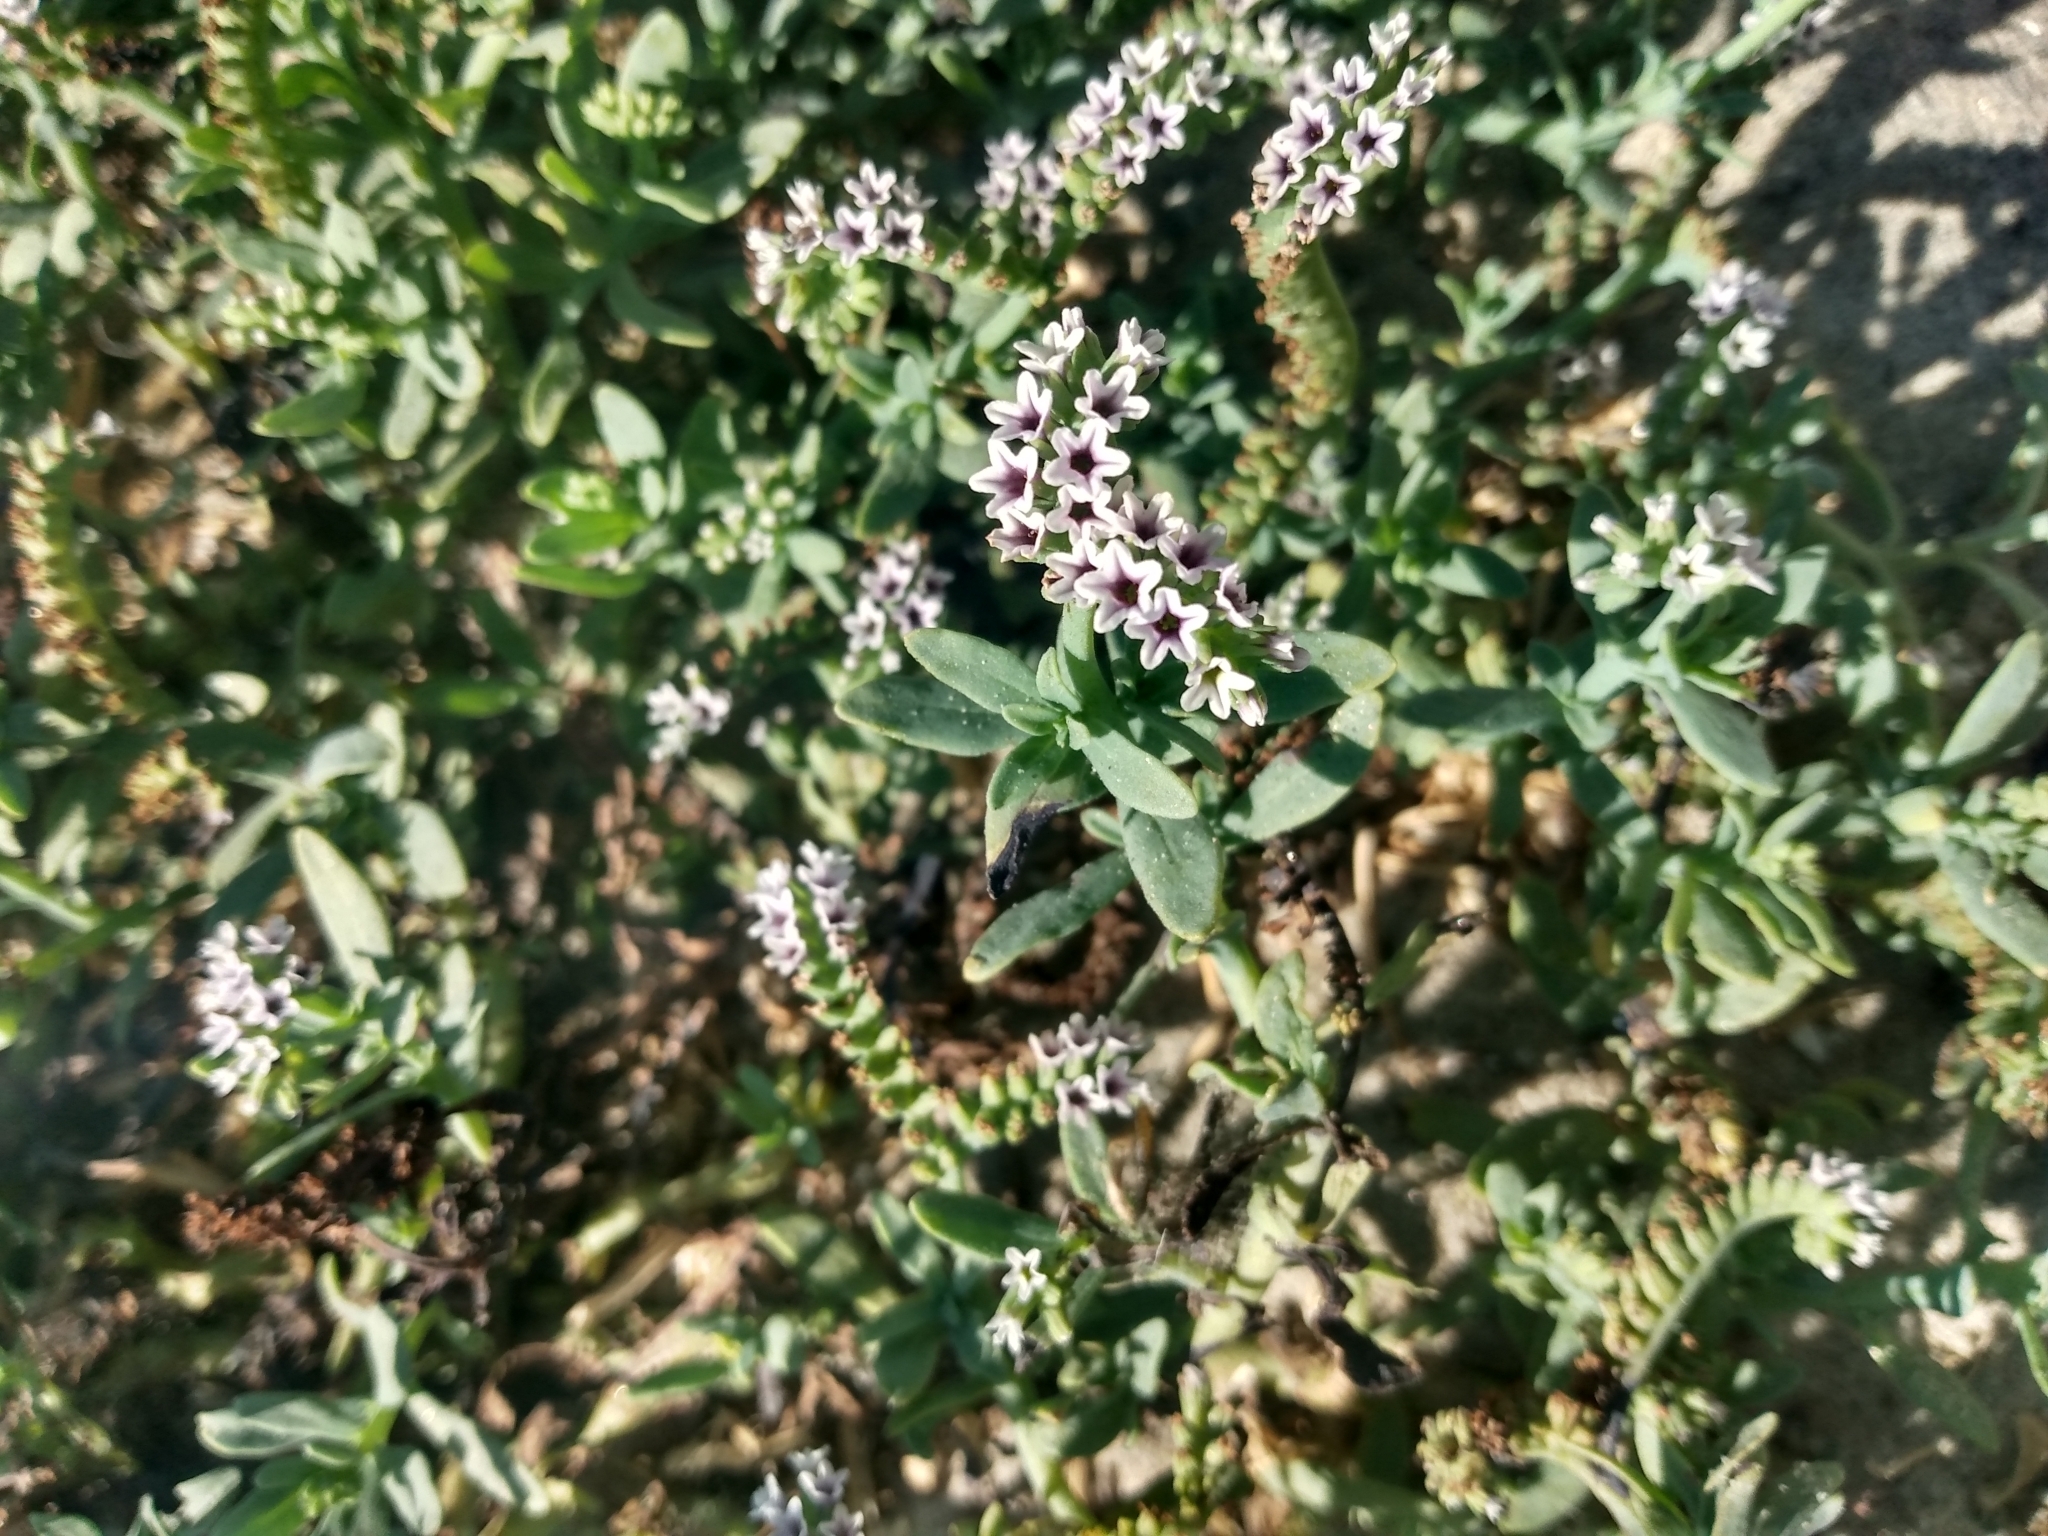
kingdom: Plantae
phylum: Tracheophyta
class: Magnoliopsida
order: Boraginales
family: Heliotropiaceae
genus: Heliotropium
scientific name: Heliotropium curassavicum
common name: Seaside heliotrope
